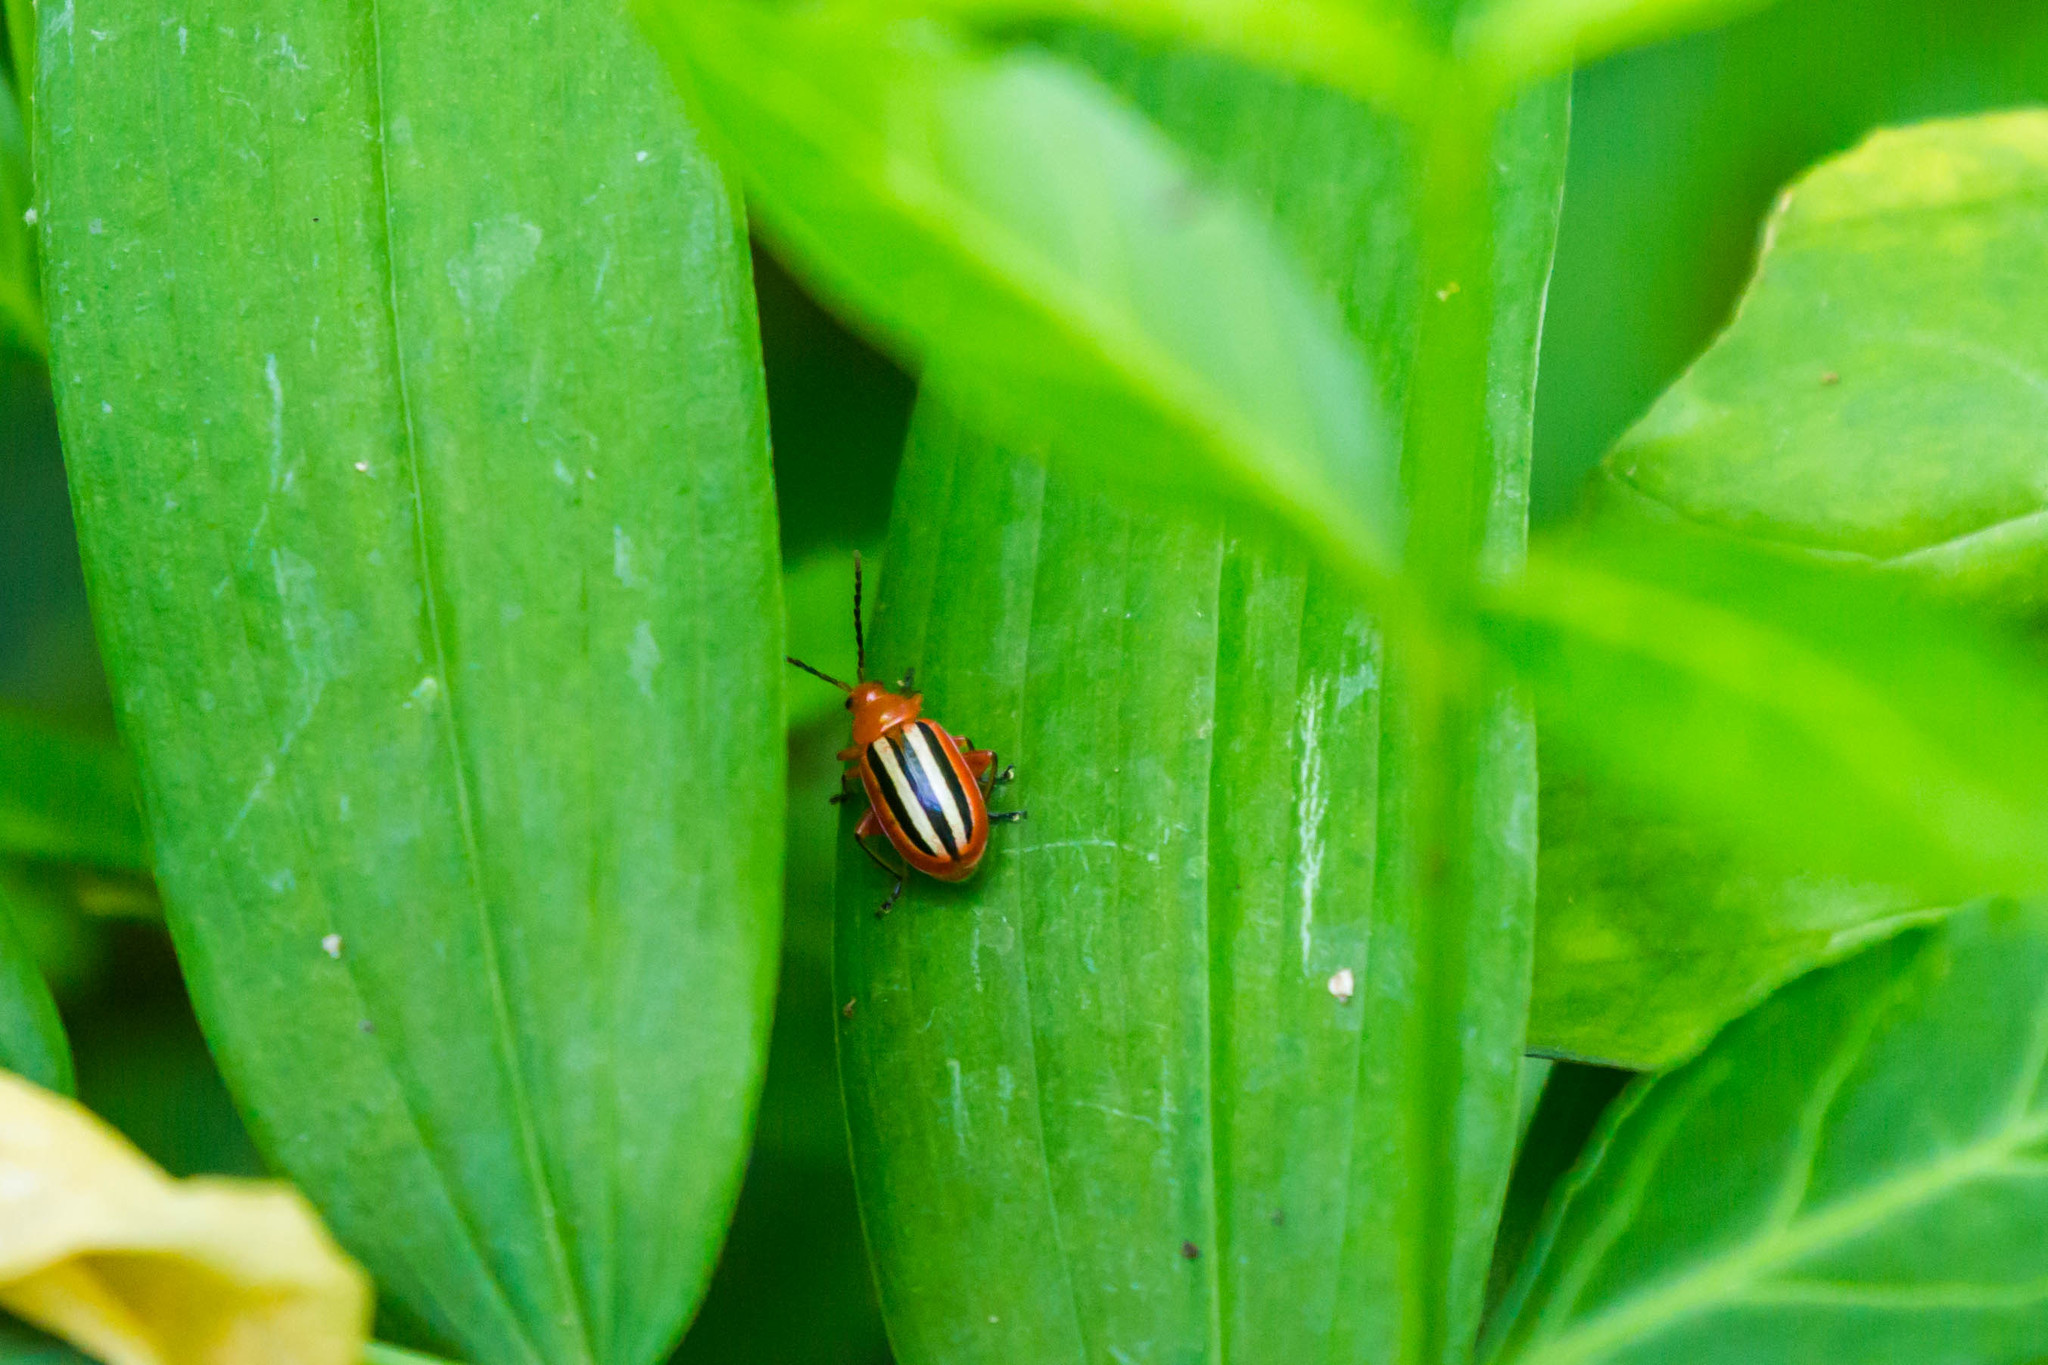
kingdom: Animalia
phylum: Arthropoda
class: Insecta
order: Coleoptera
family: Chrysomelidae
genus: Disonycha
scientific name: Disonycha discoidea
